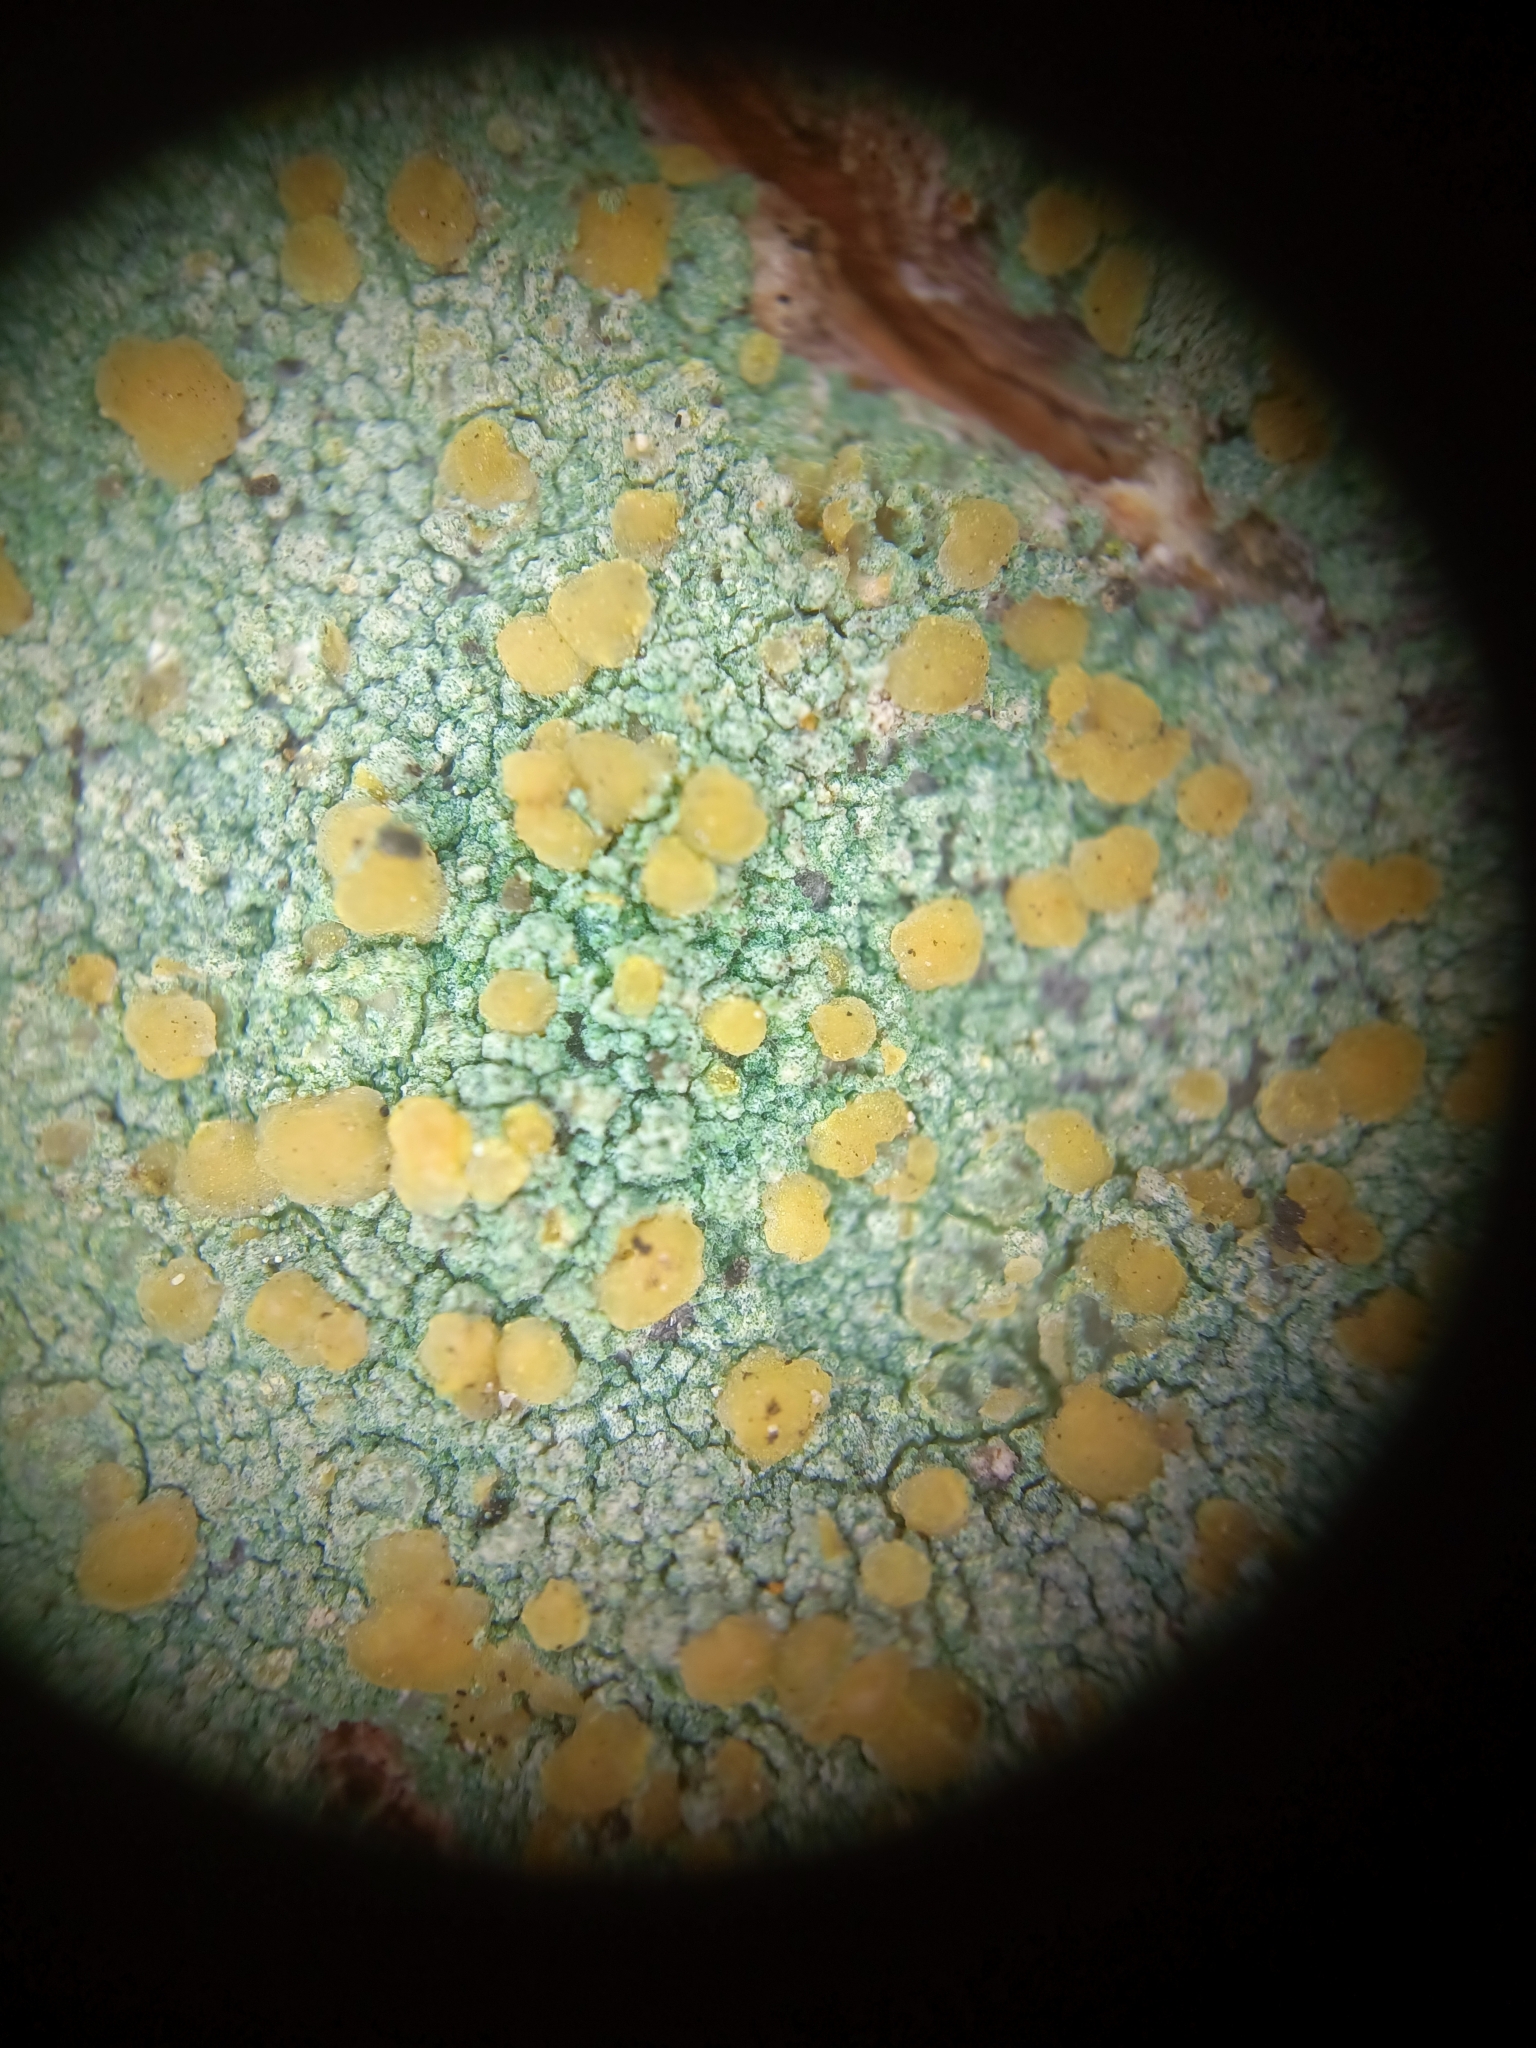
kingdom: Fungi
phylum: Ascomycota
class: Lecanoromycetes
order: Lecanorales
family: Lecanoraceae
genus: Lecanora
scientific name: Lecanora symmicta
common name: Fused rim lichen
